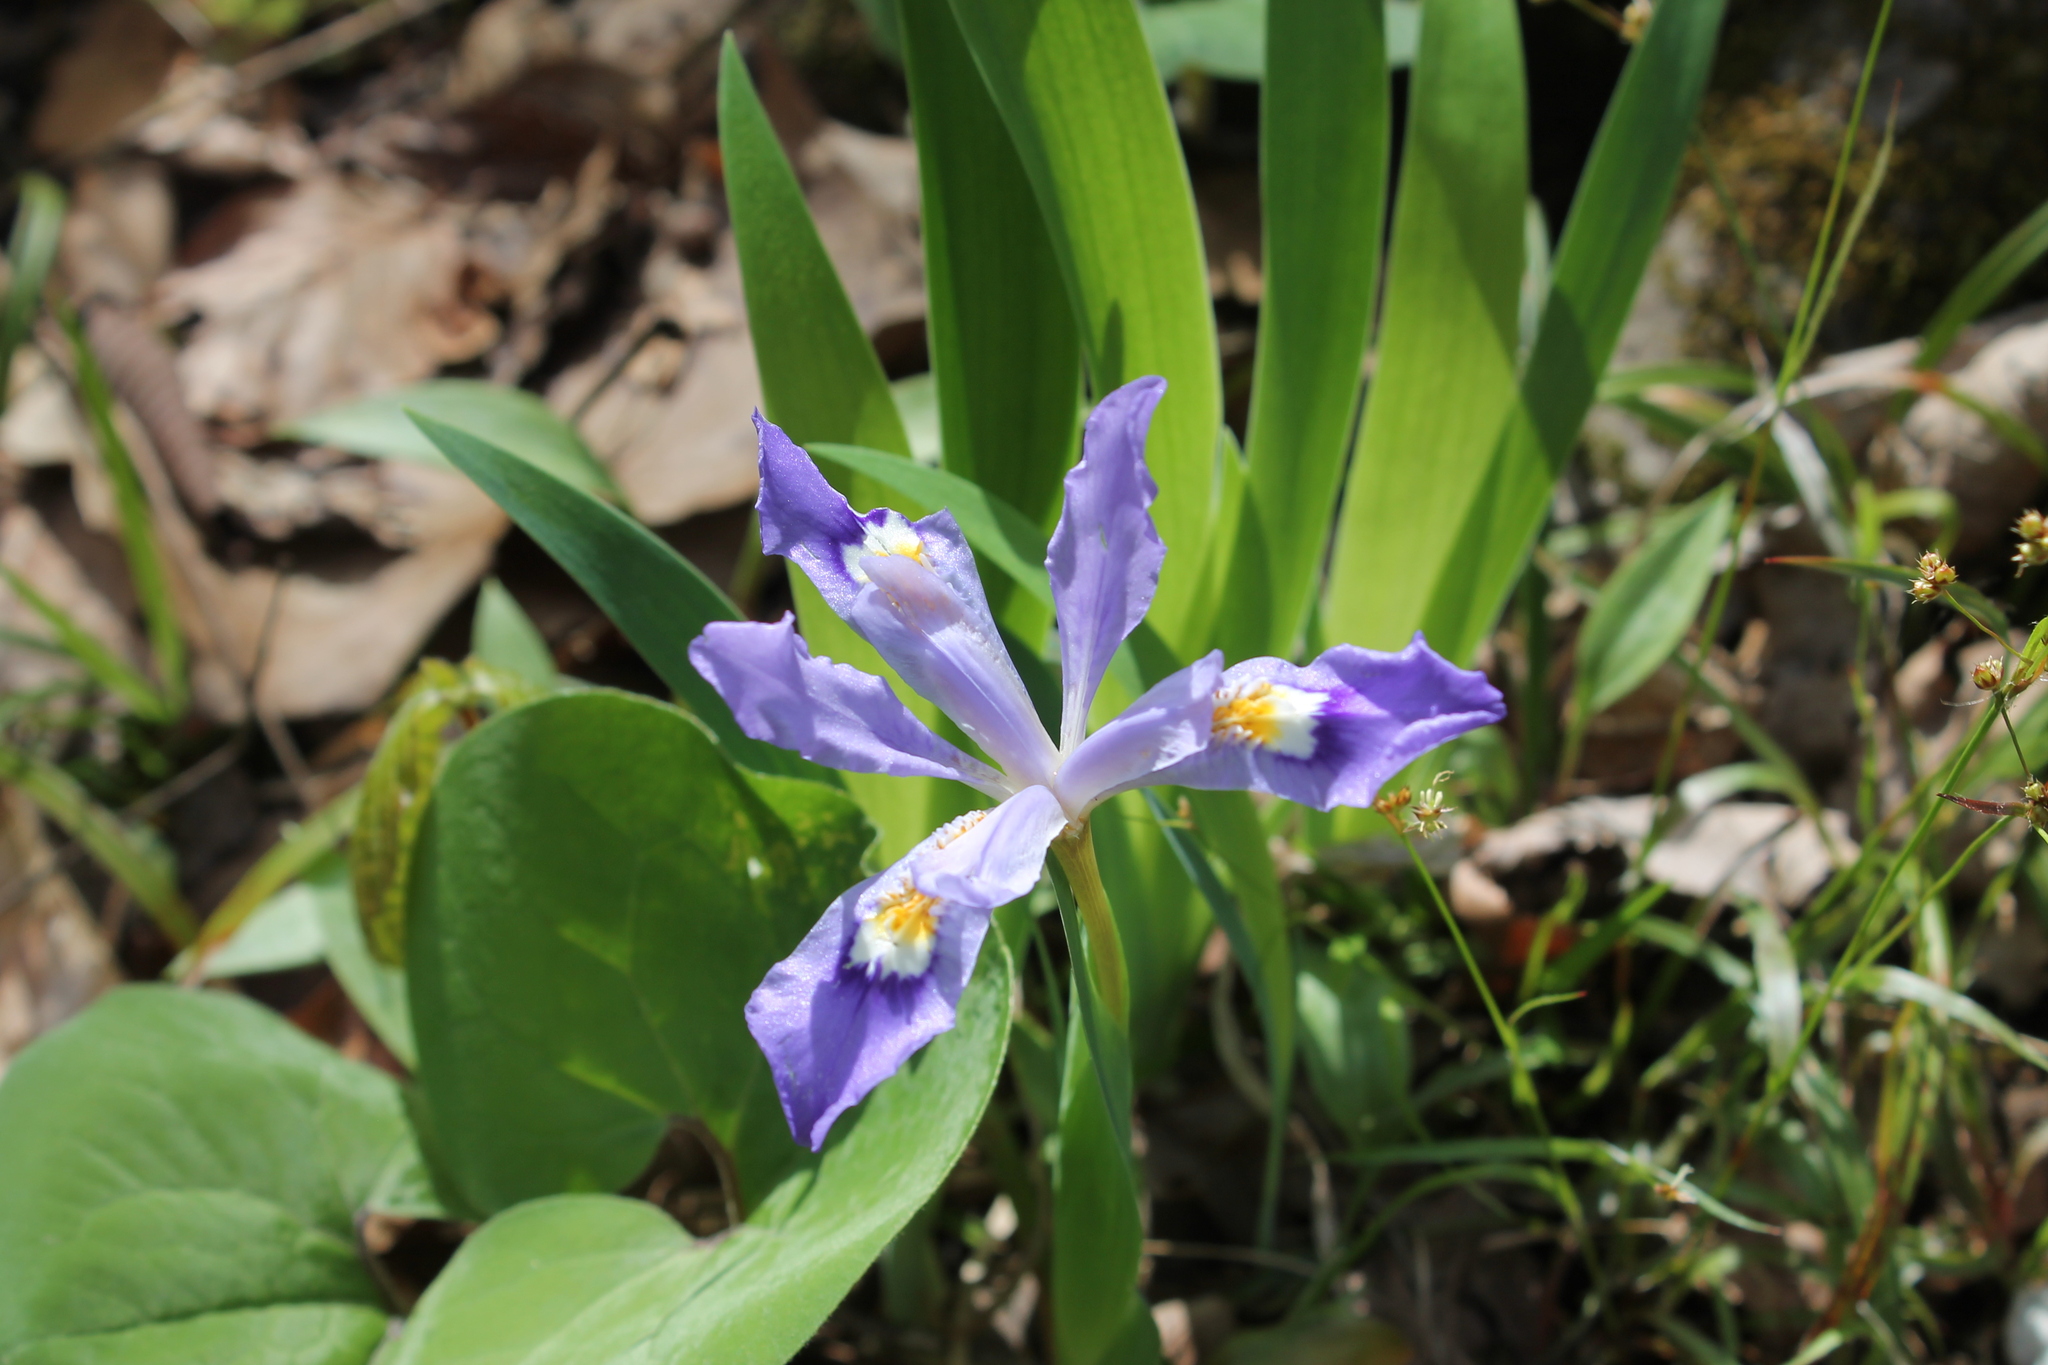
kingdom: Plantae
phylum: Tracheophyta
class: Liliopsida
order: Asparagales
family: Iridaceae
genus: Iris
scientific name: Iris cristata
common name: Crested iris
